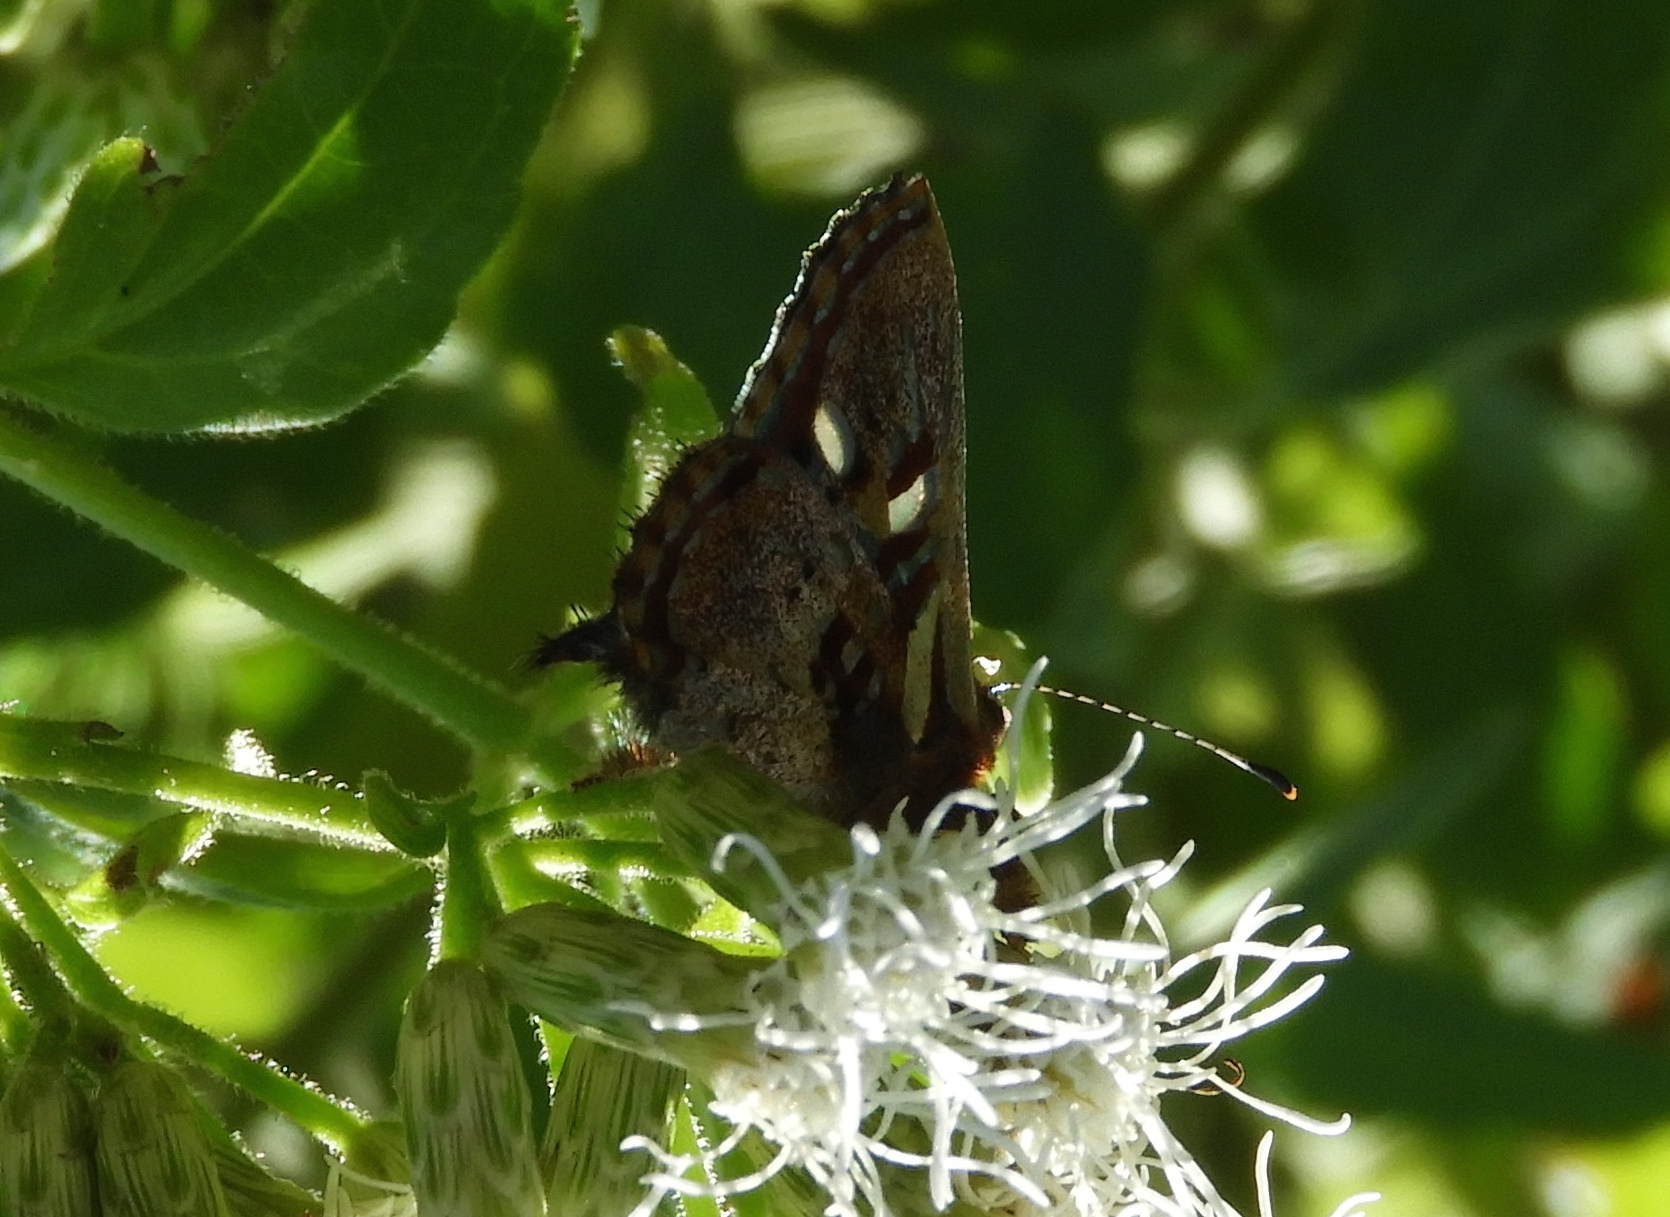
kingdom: Animalia
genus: Anteros
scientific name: Anteros carausius
